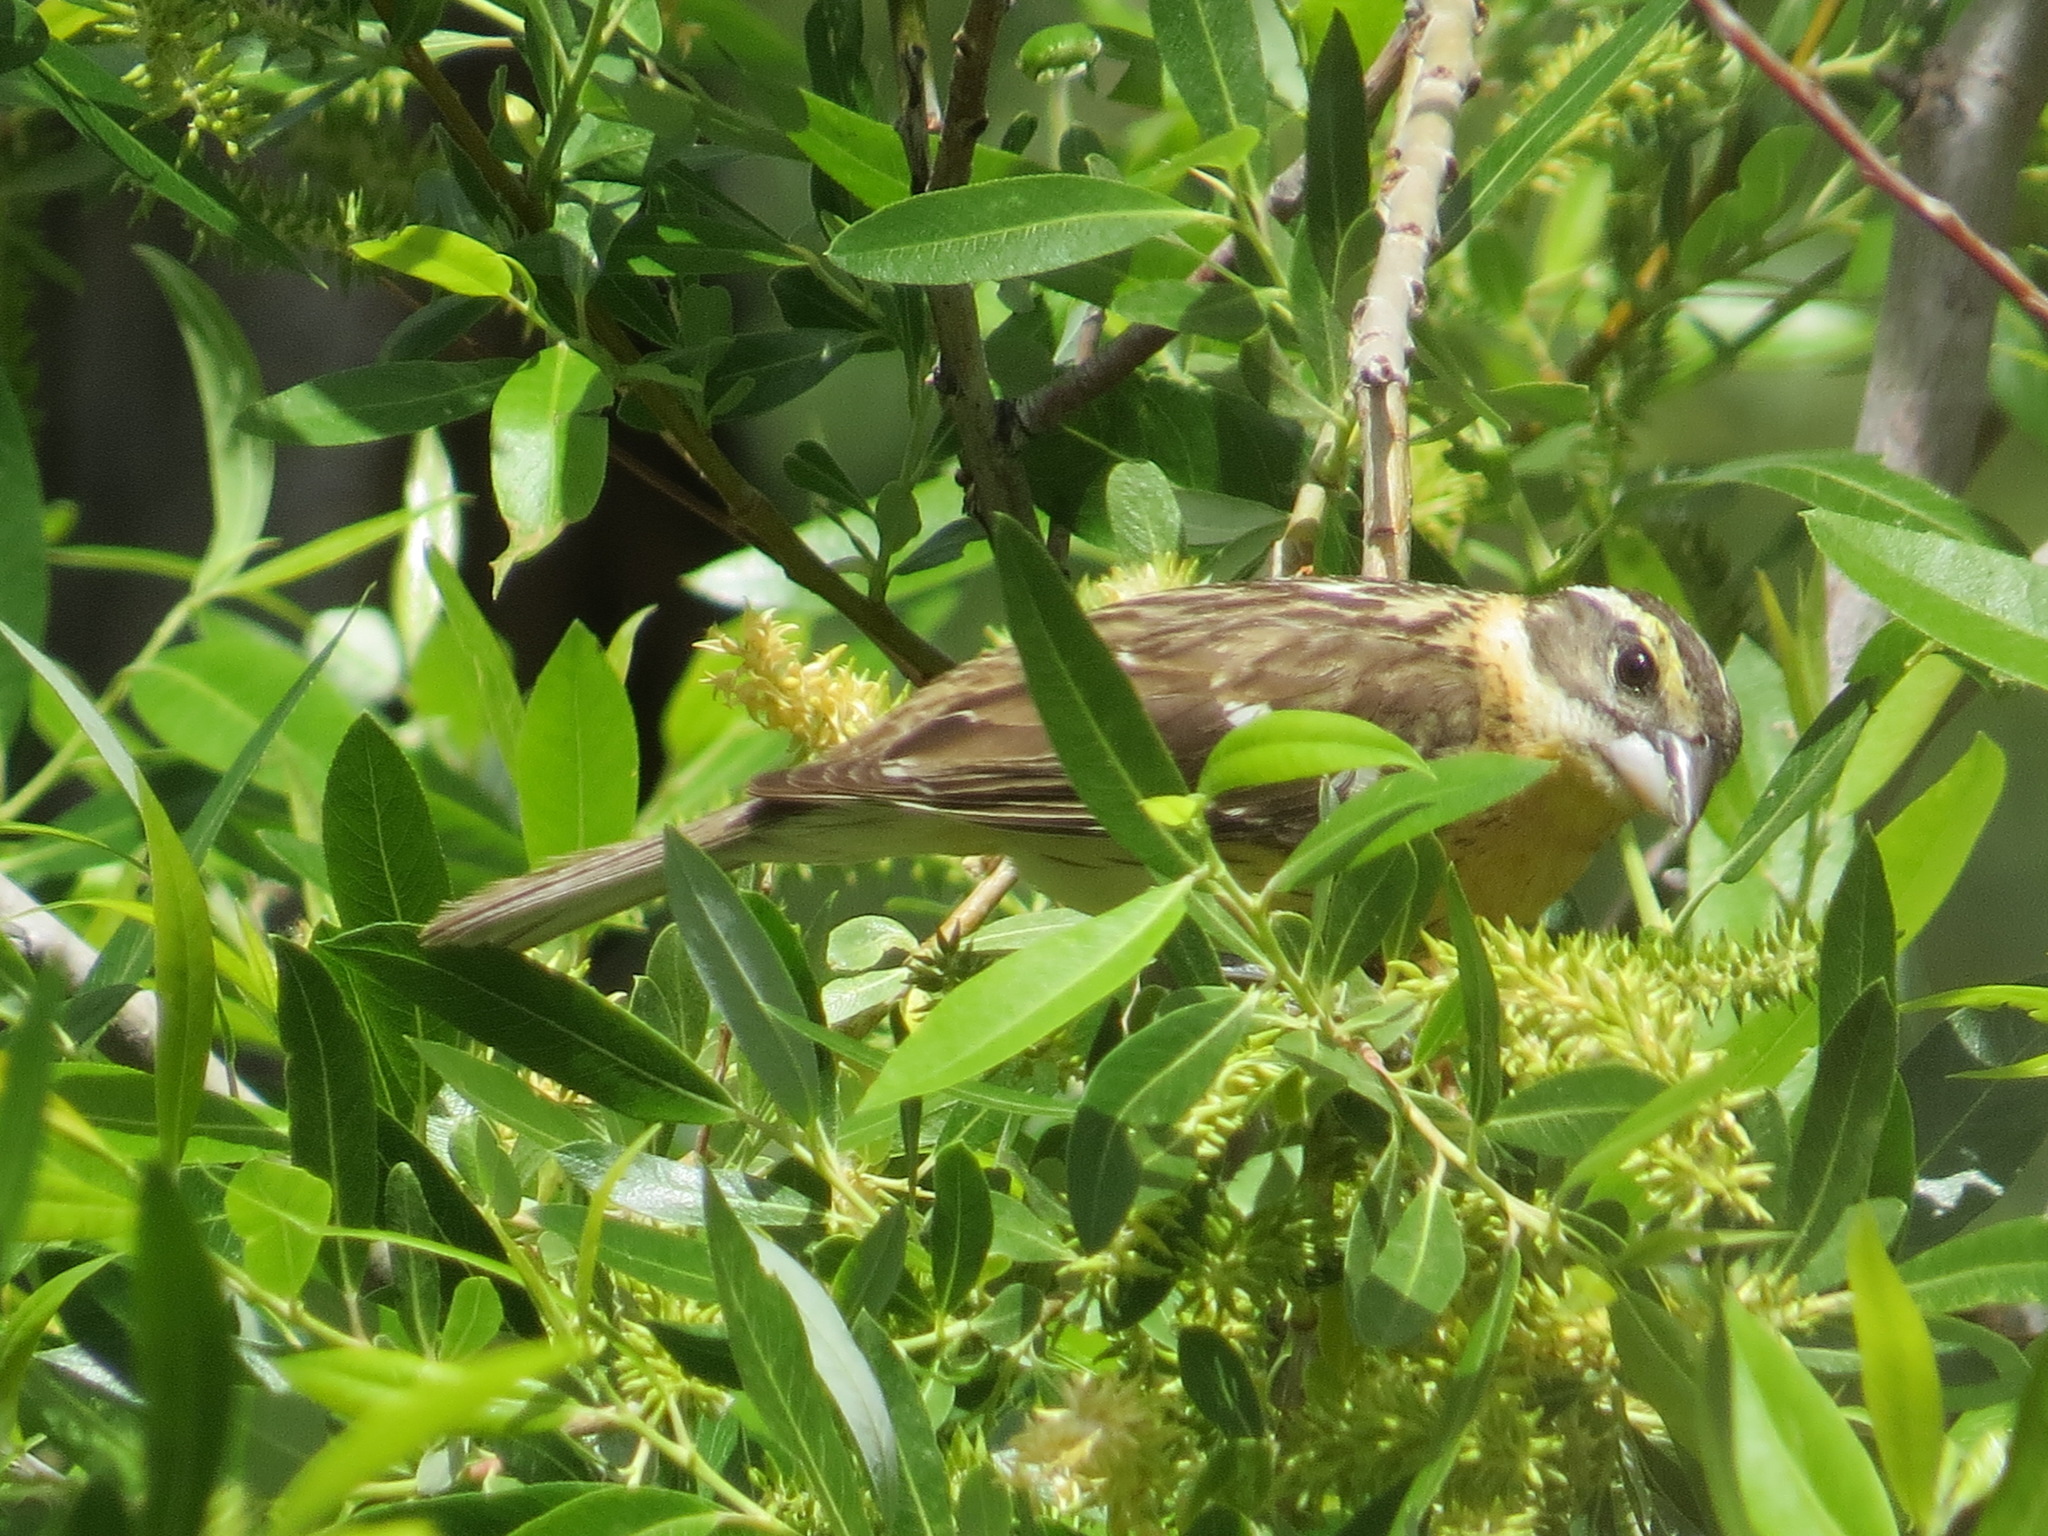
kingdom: Animalia
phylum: Chordata
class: Aves
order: Passeriformes
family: Cardinalidae
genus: Pheucticus
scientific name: Pheucticus melanocephalus
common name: Black-headed grosbeak
